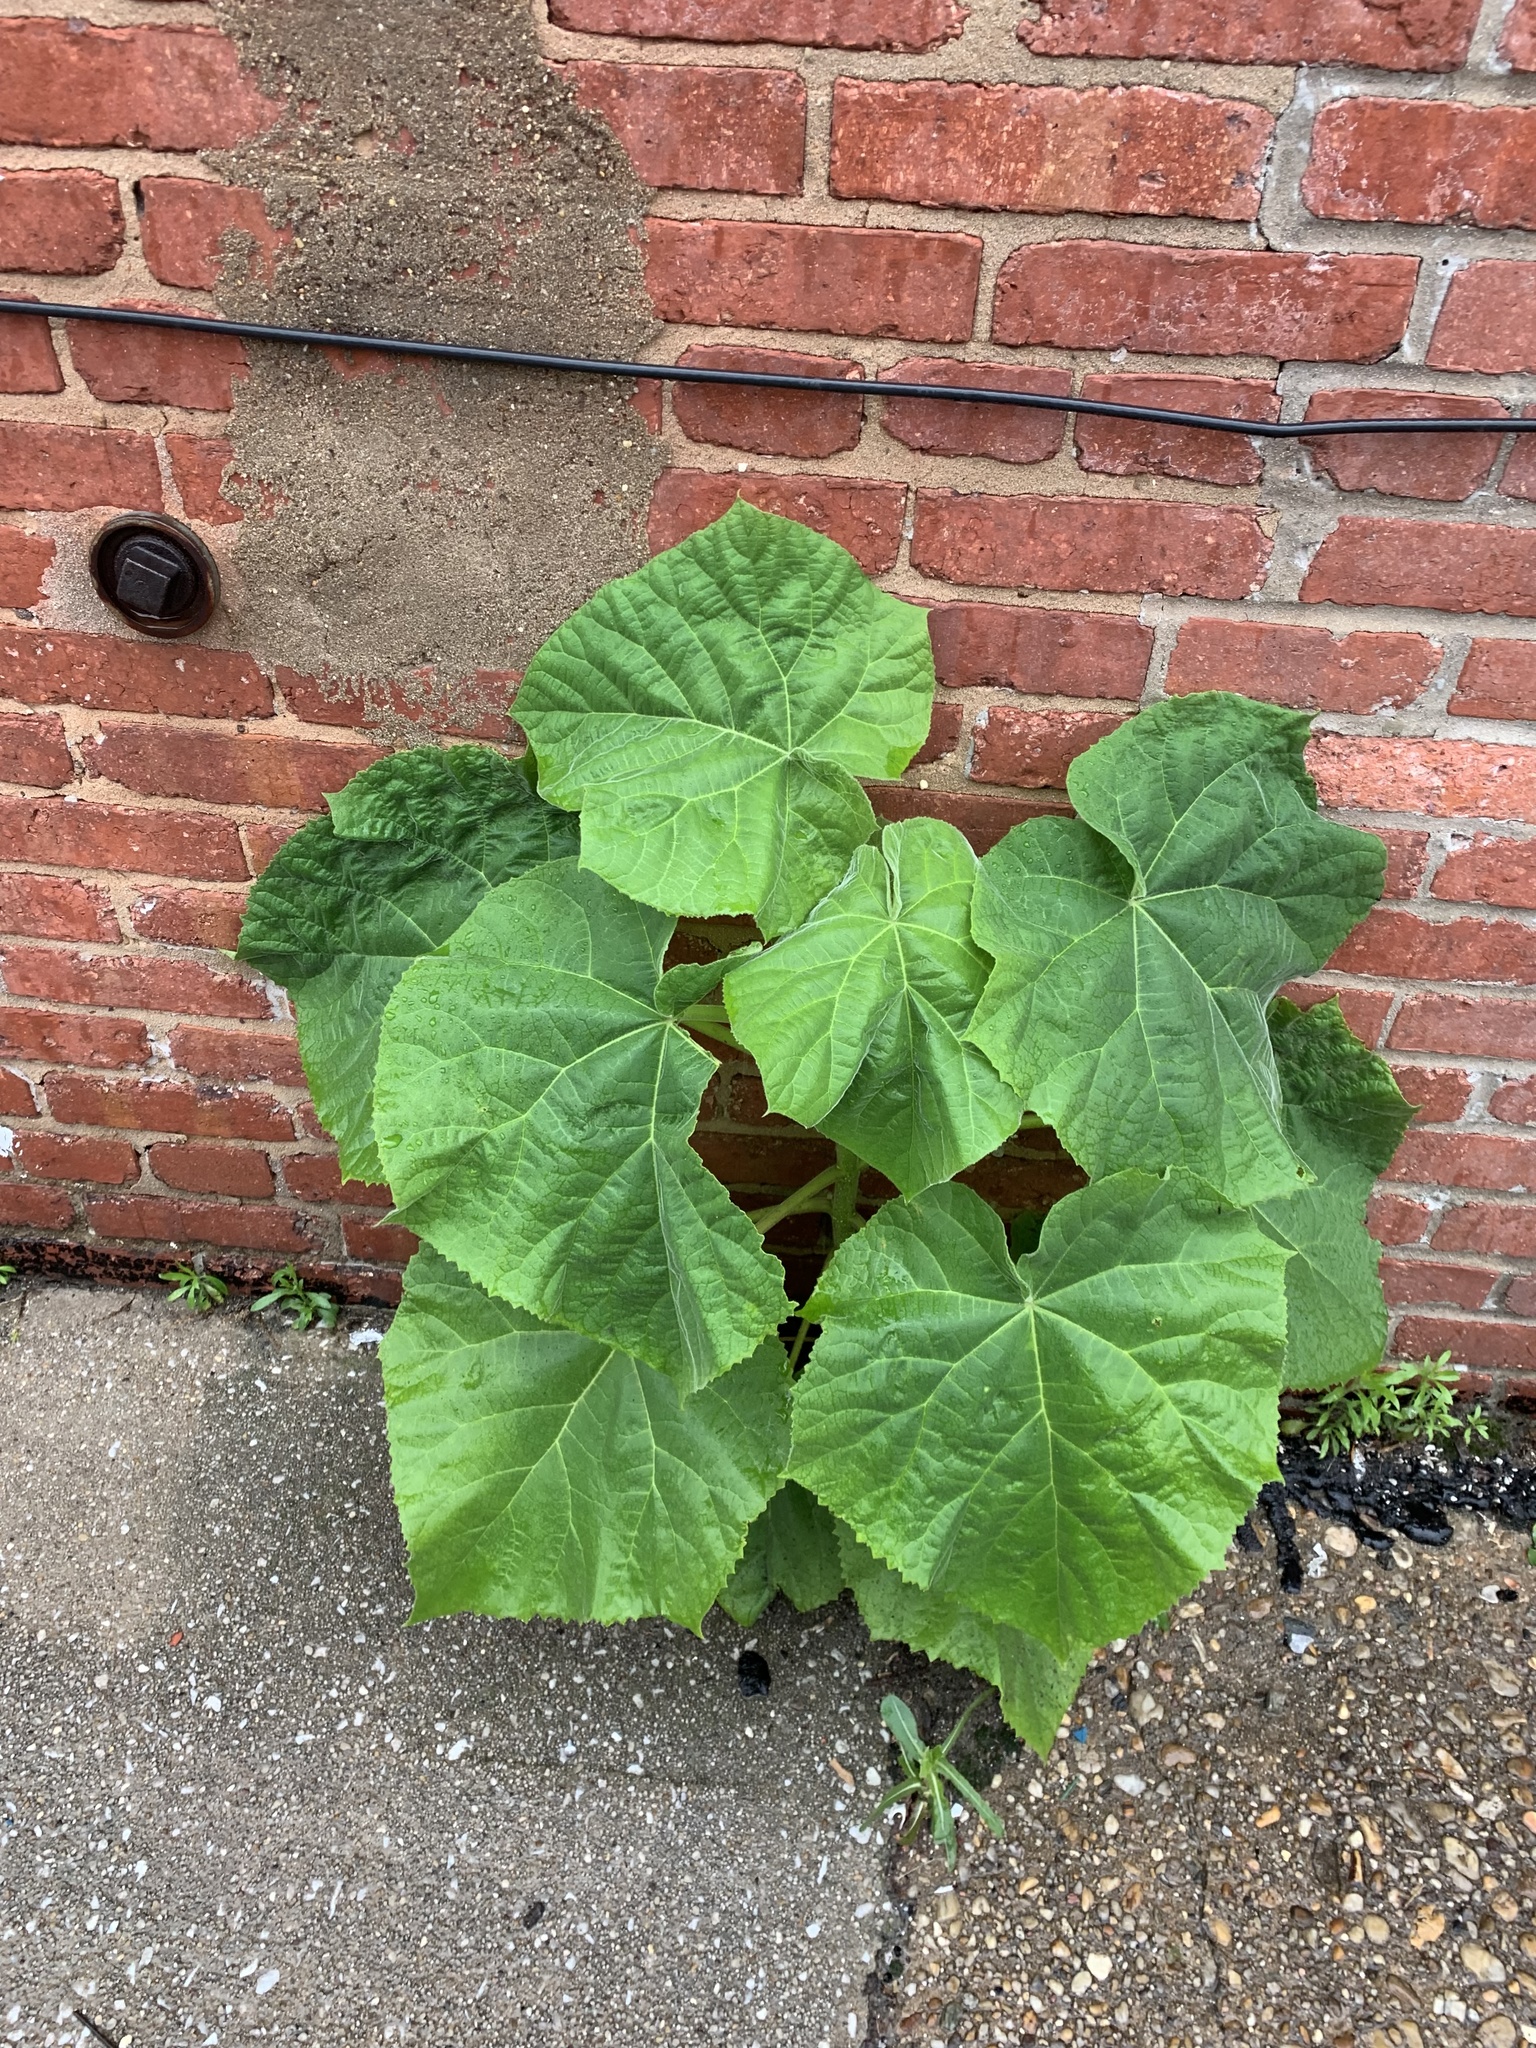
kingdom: Plantae
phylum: Tracheophyta
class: Magnoliopsida
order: Lamiales
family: Paulowniaceae
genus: Paulownia
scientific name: Paulownia tomentosa
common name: Foxglove-tree
